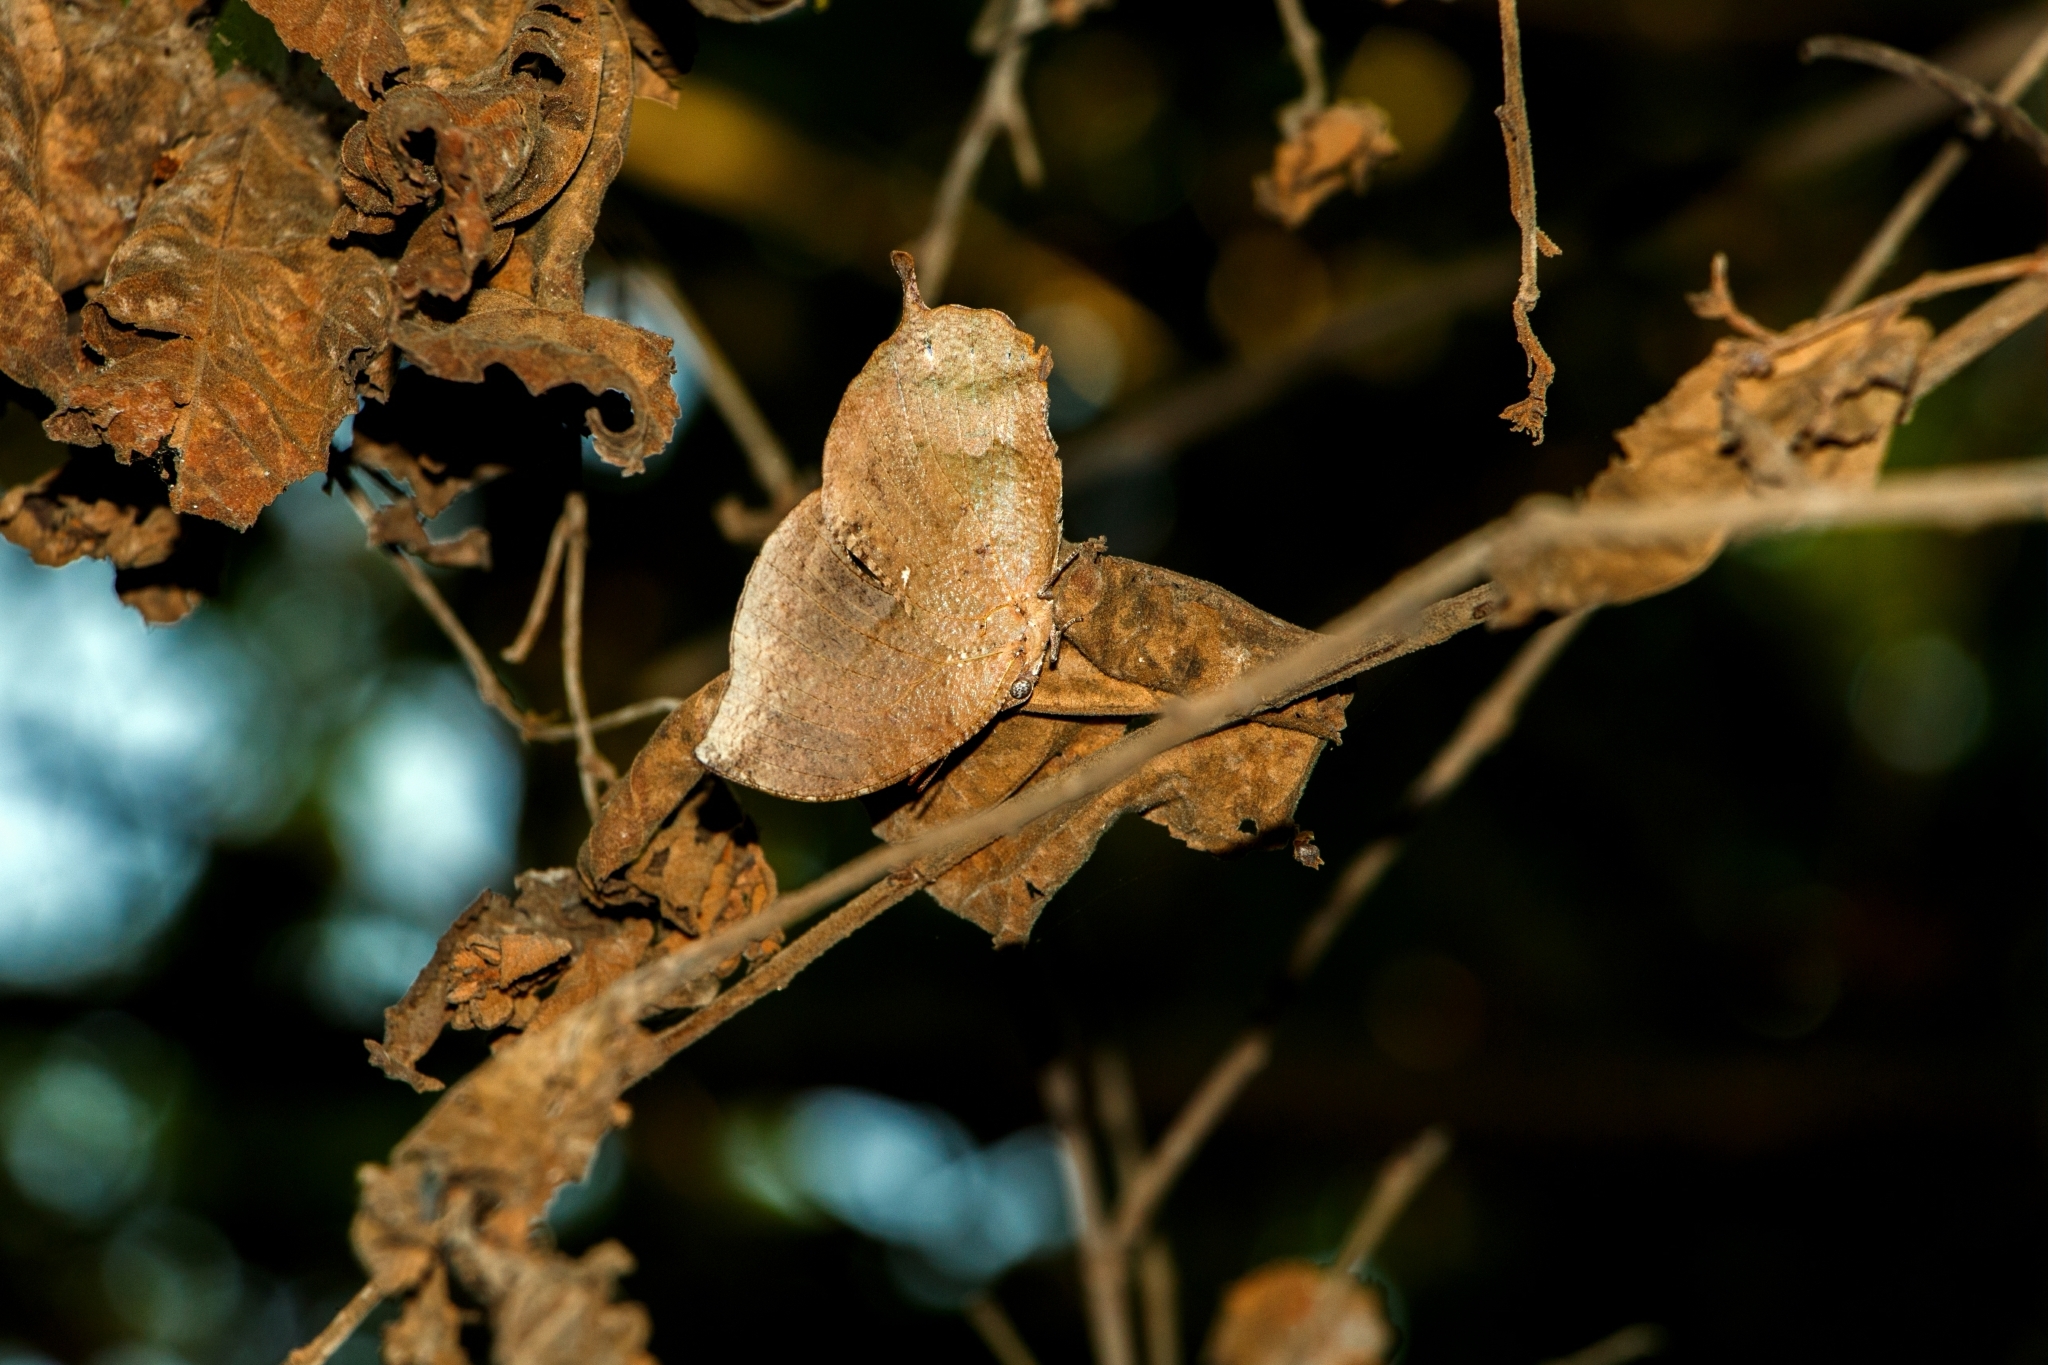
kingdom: Animalia
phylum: Arthropoda
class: Insecta
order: Lepidoptera
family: Nymphalidae
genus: Memphis
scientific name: Memphis forreri
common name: Forrer's leafwing
